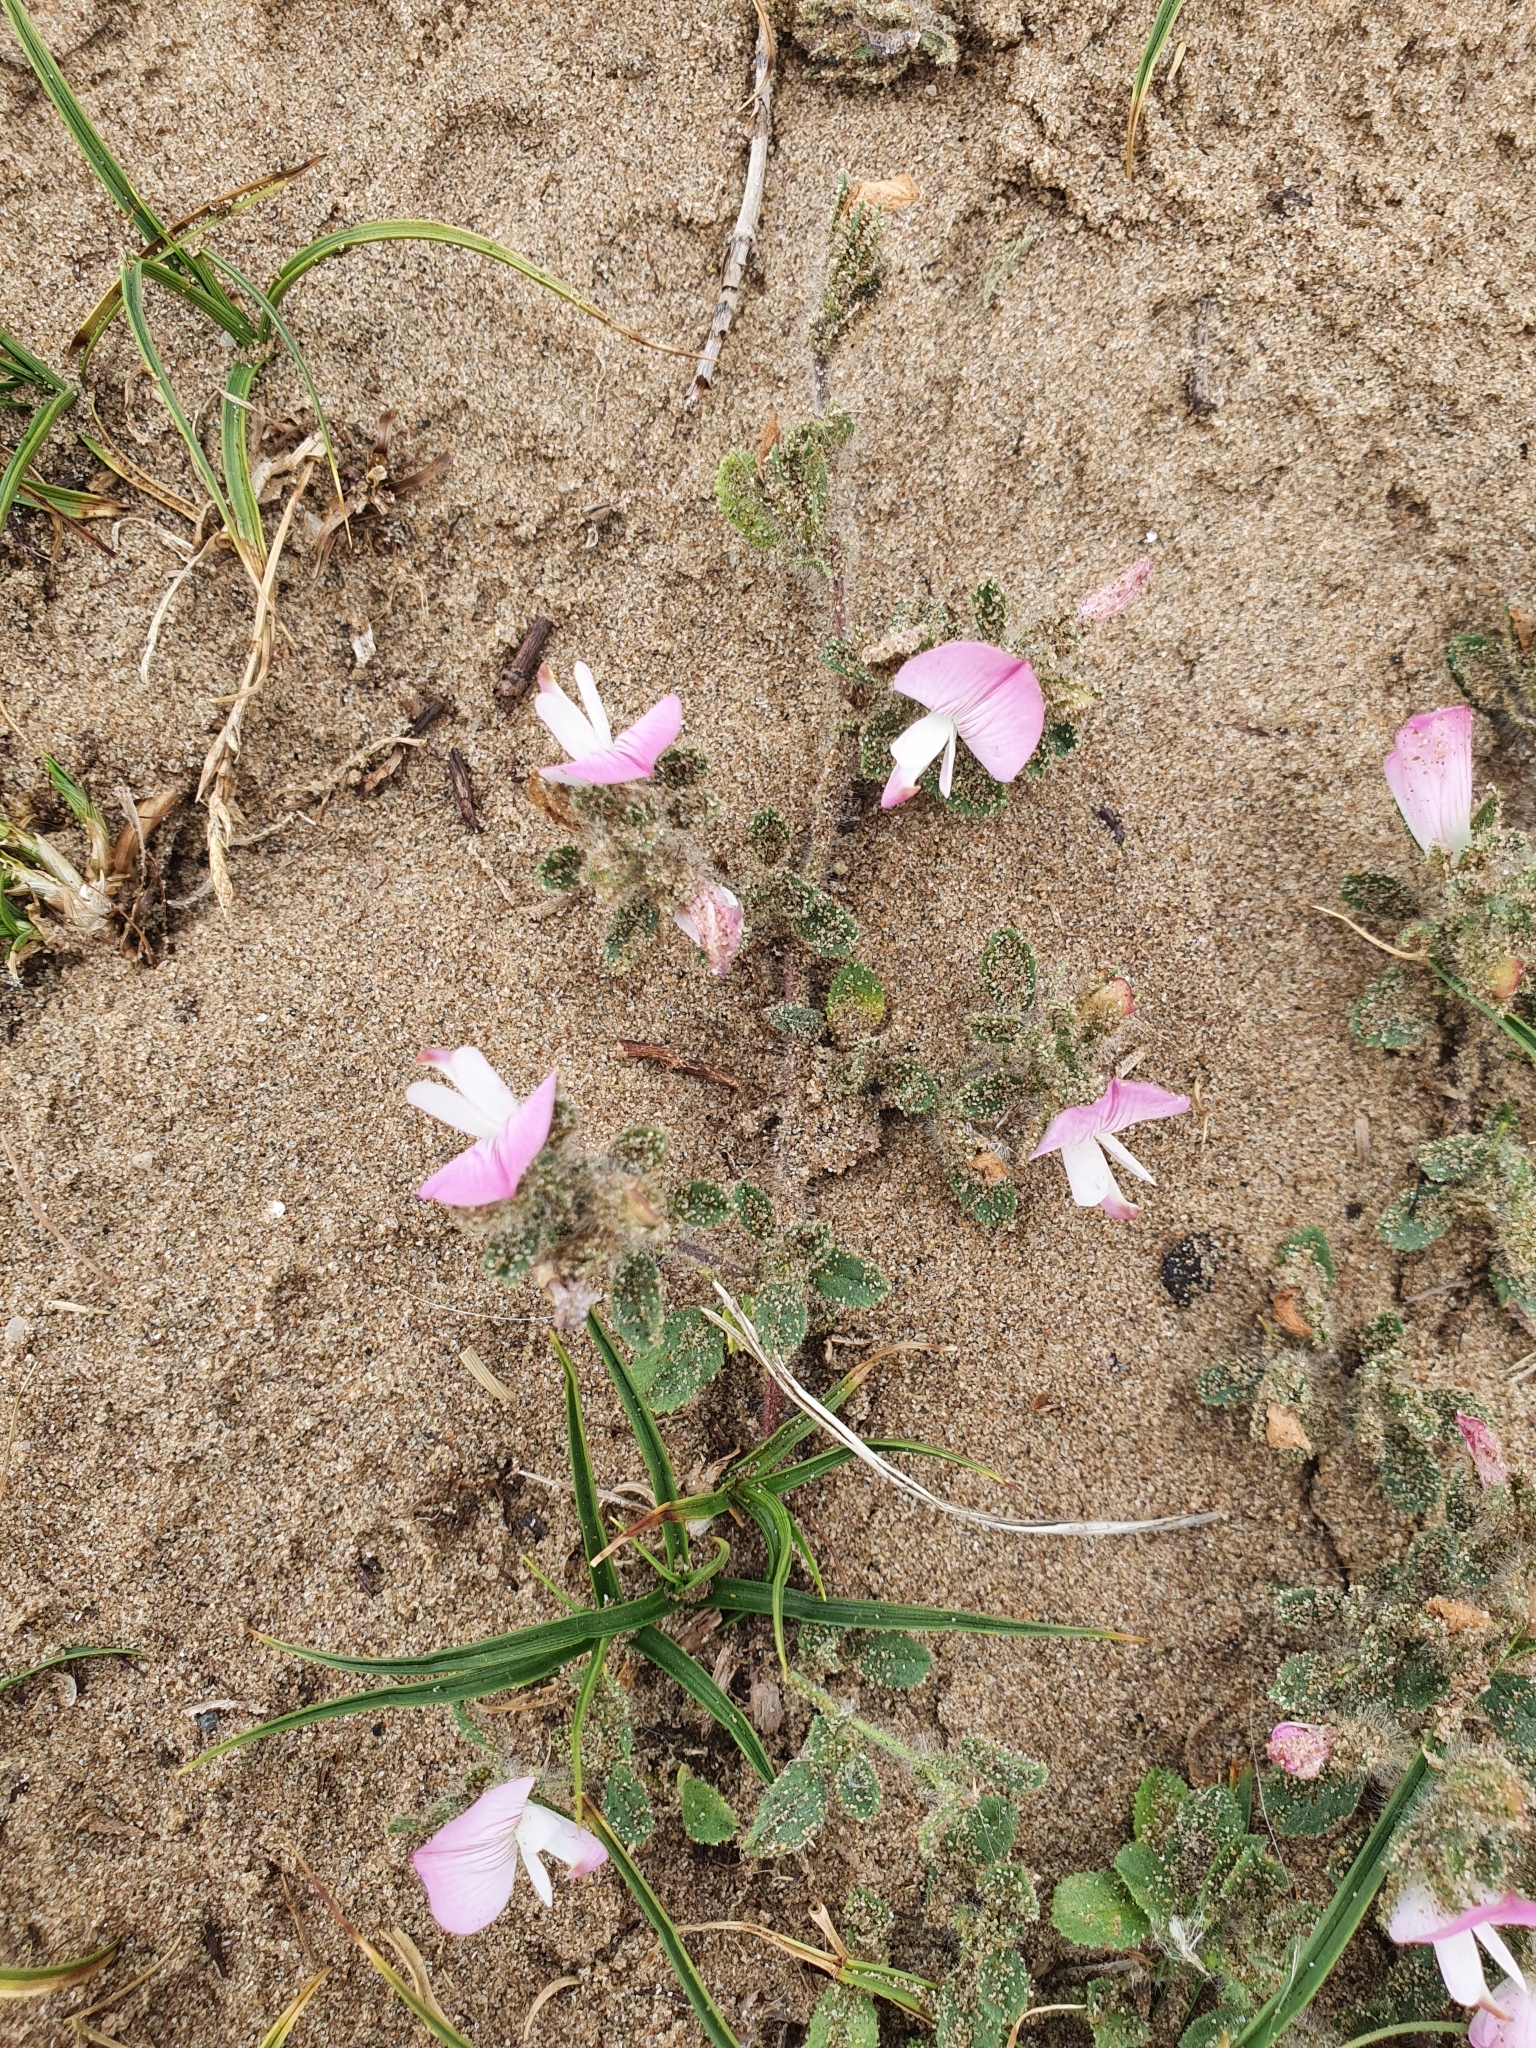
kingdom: Plantae
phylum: Tracheophyta
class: Magnoliopsida
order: Fabales
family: Fabaceae
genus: Ononis
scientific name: Ononis spinosa
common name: Spiny restharrow
